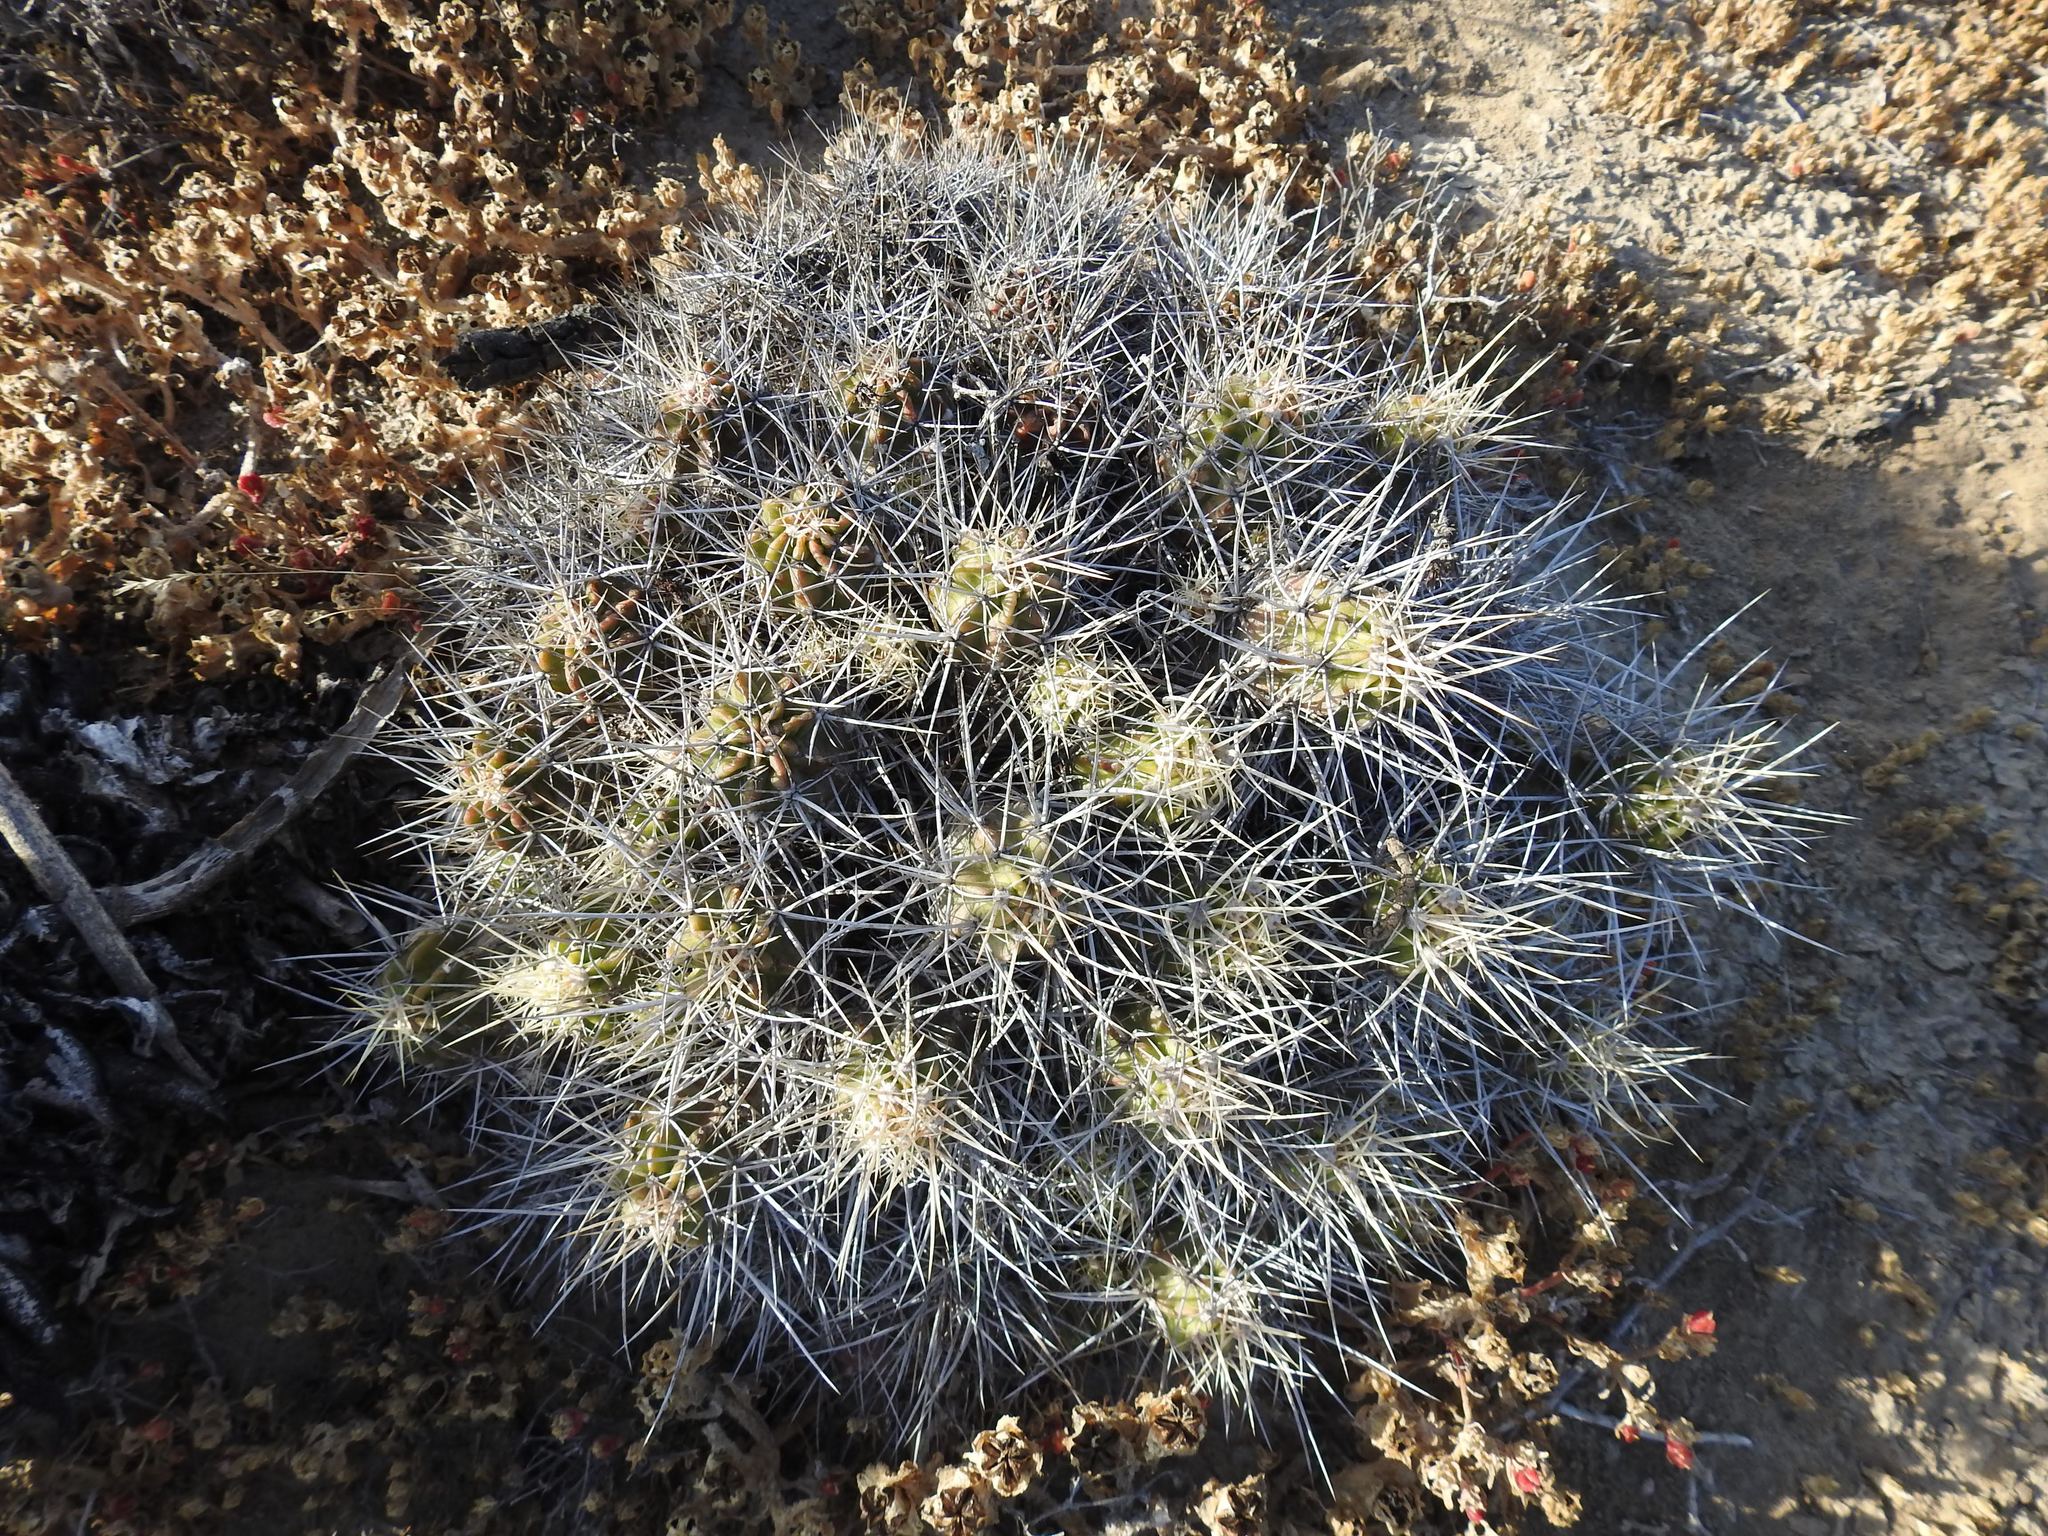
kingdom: Plantae
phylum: Tracheophyta
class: Magnoliopsida
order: Caryophyllales
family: Cactaceae
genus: Echinocereus
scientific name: Echinocereus maritimus
